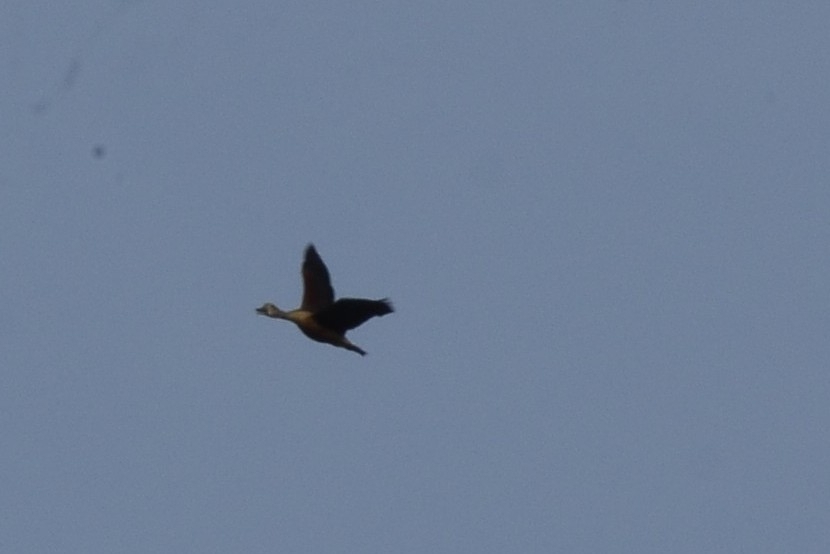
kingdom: Animalia
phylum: Chordata
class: Aves
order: Anseriformes
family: Anatidae
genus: Dendrocygna
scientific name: Dendrocygna javanica
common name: Lesser whistling-duck
